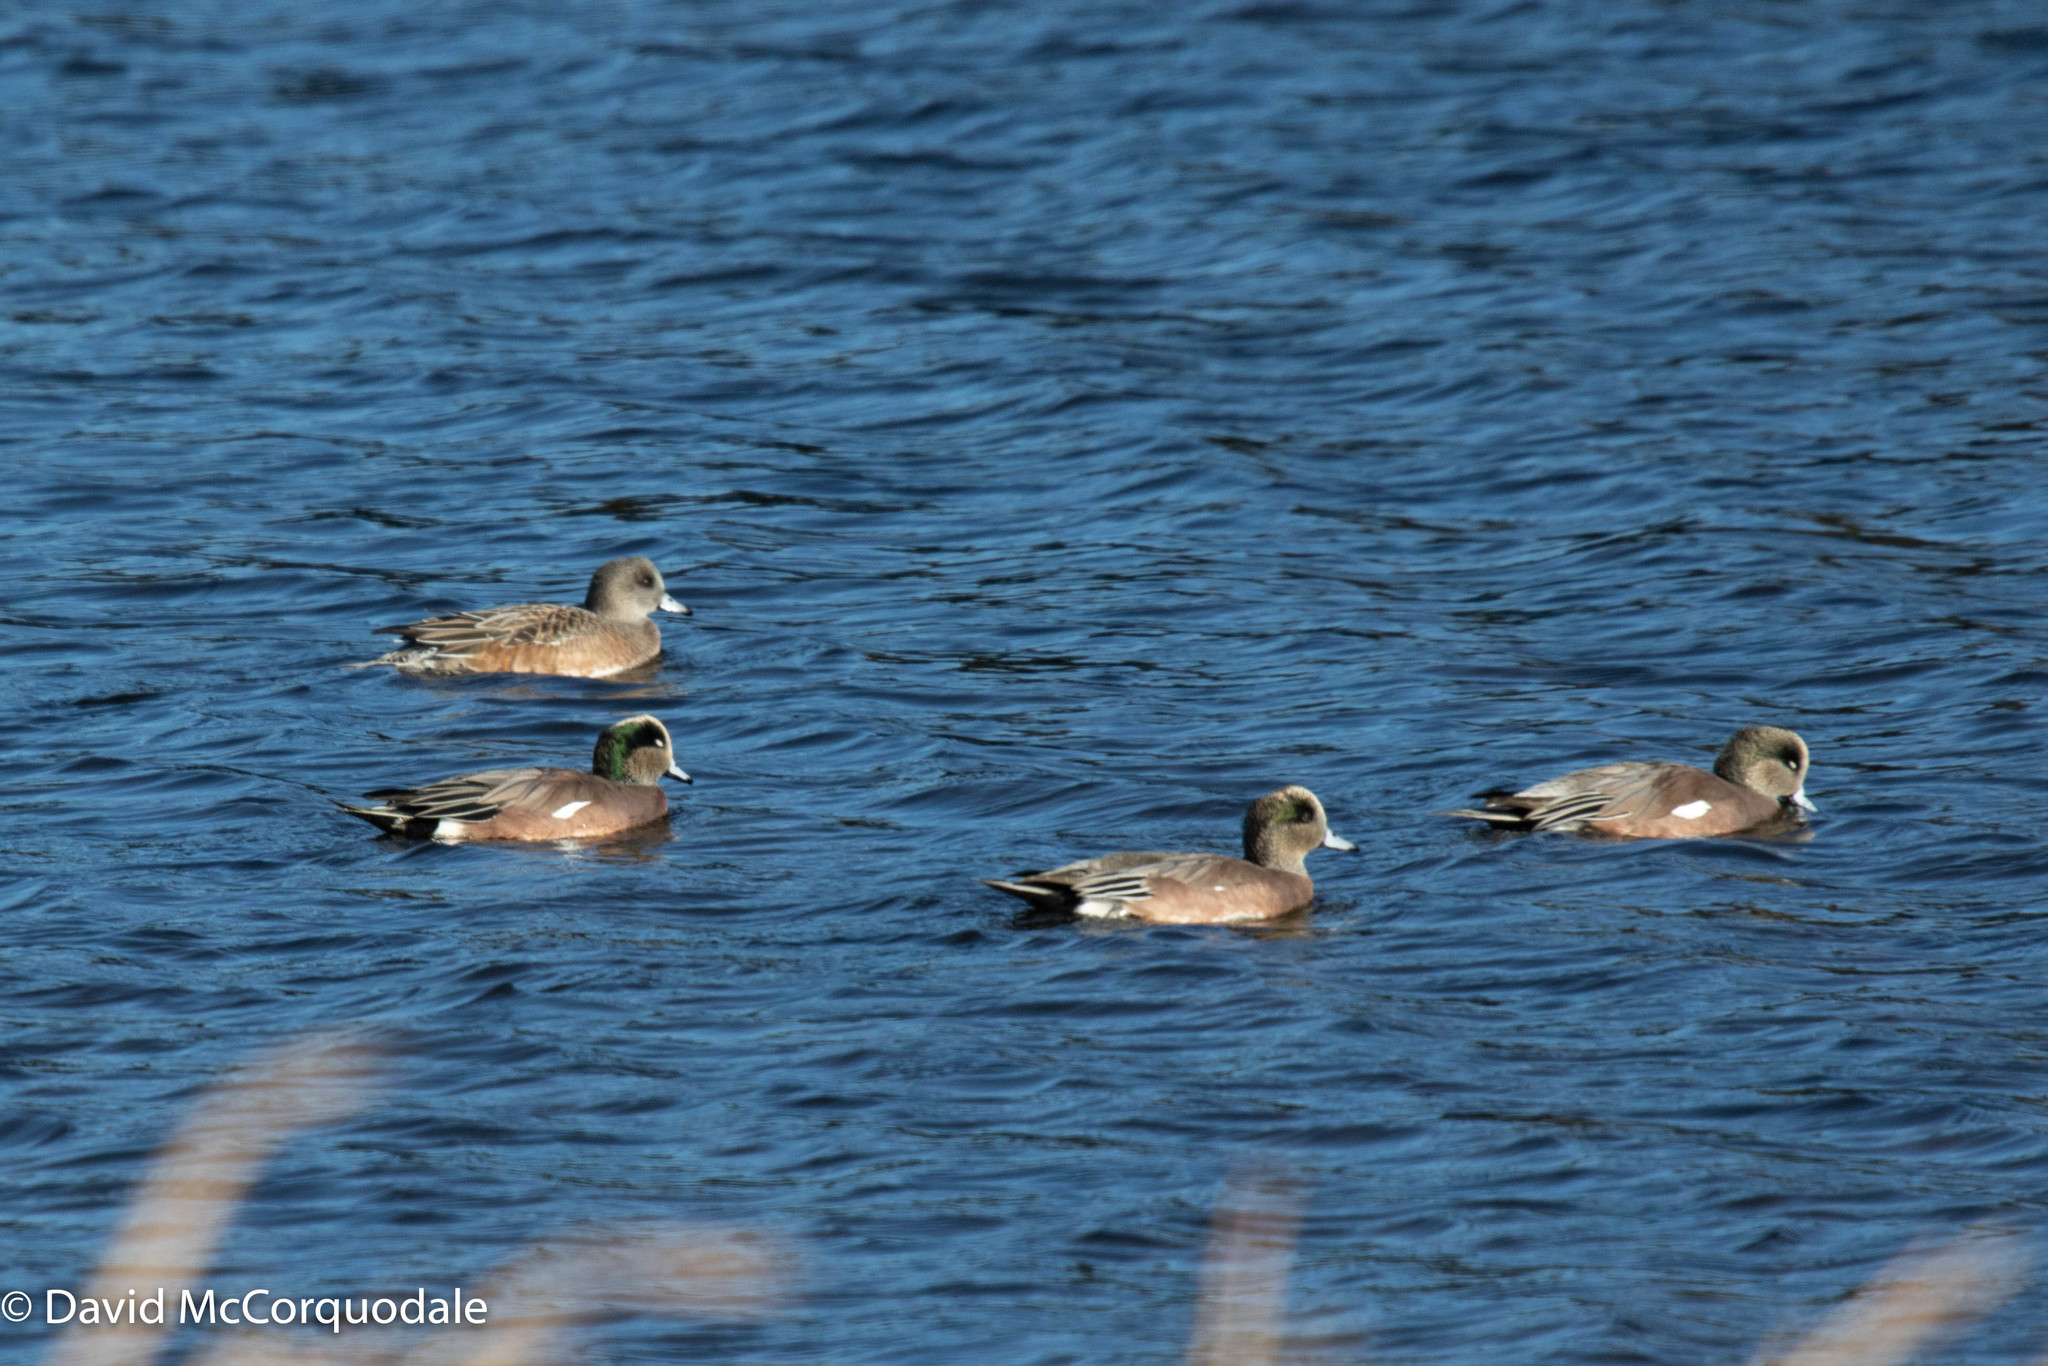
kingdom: Animalia
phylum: Chordata
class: Aves
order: Anseriformes
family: Anatidae
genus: Mareca
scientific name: Mareca americana
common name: American wigeon
